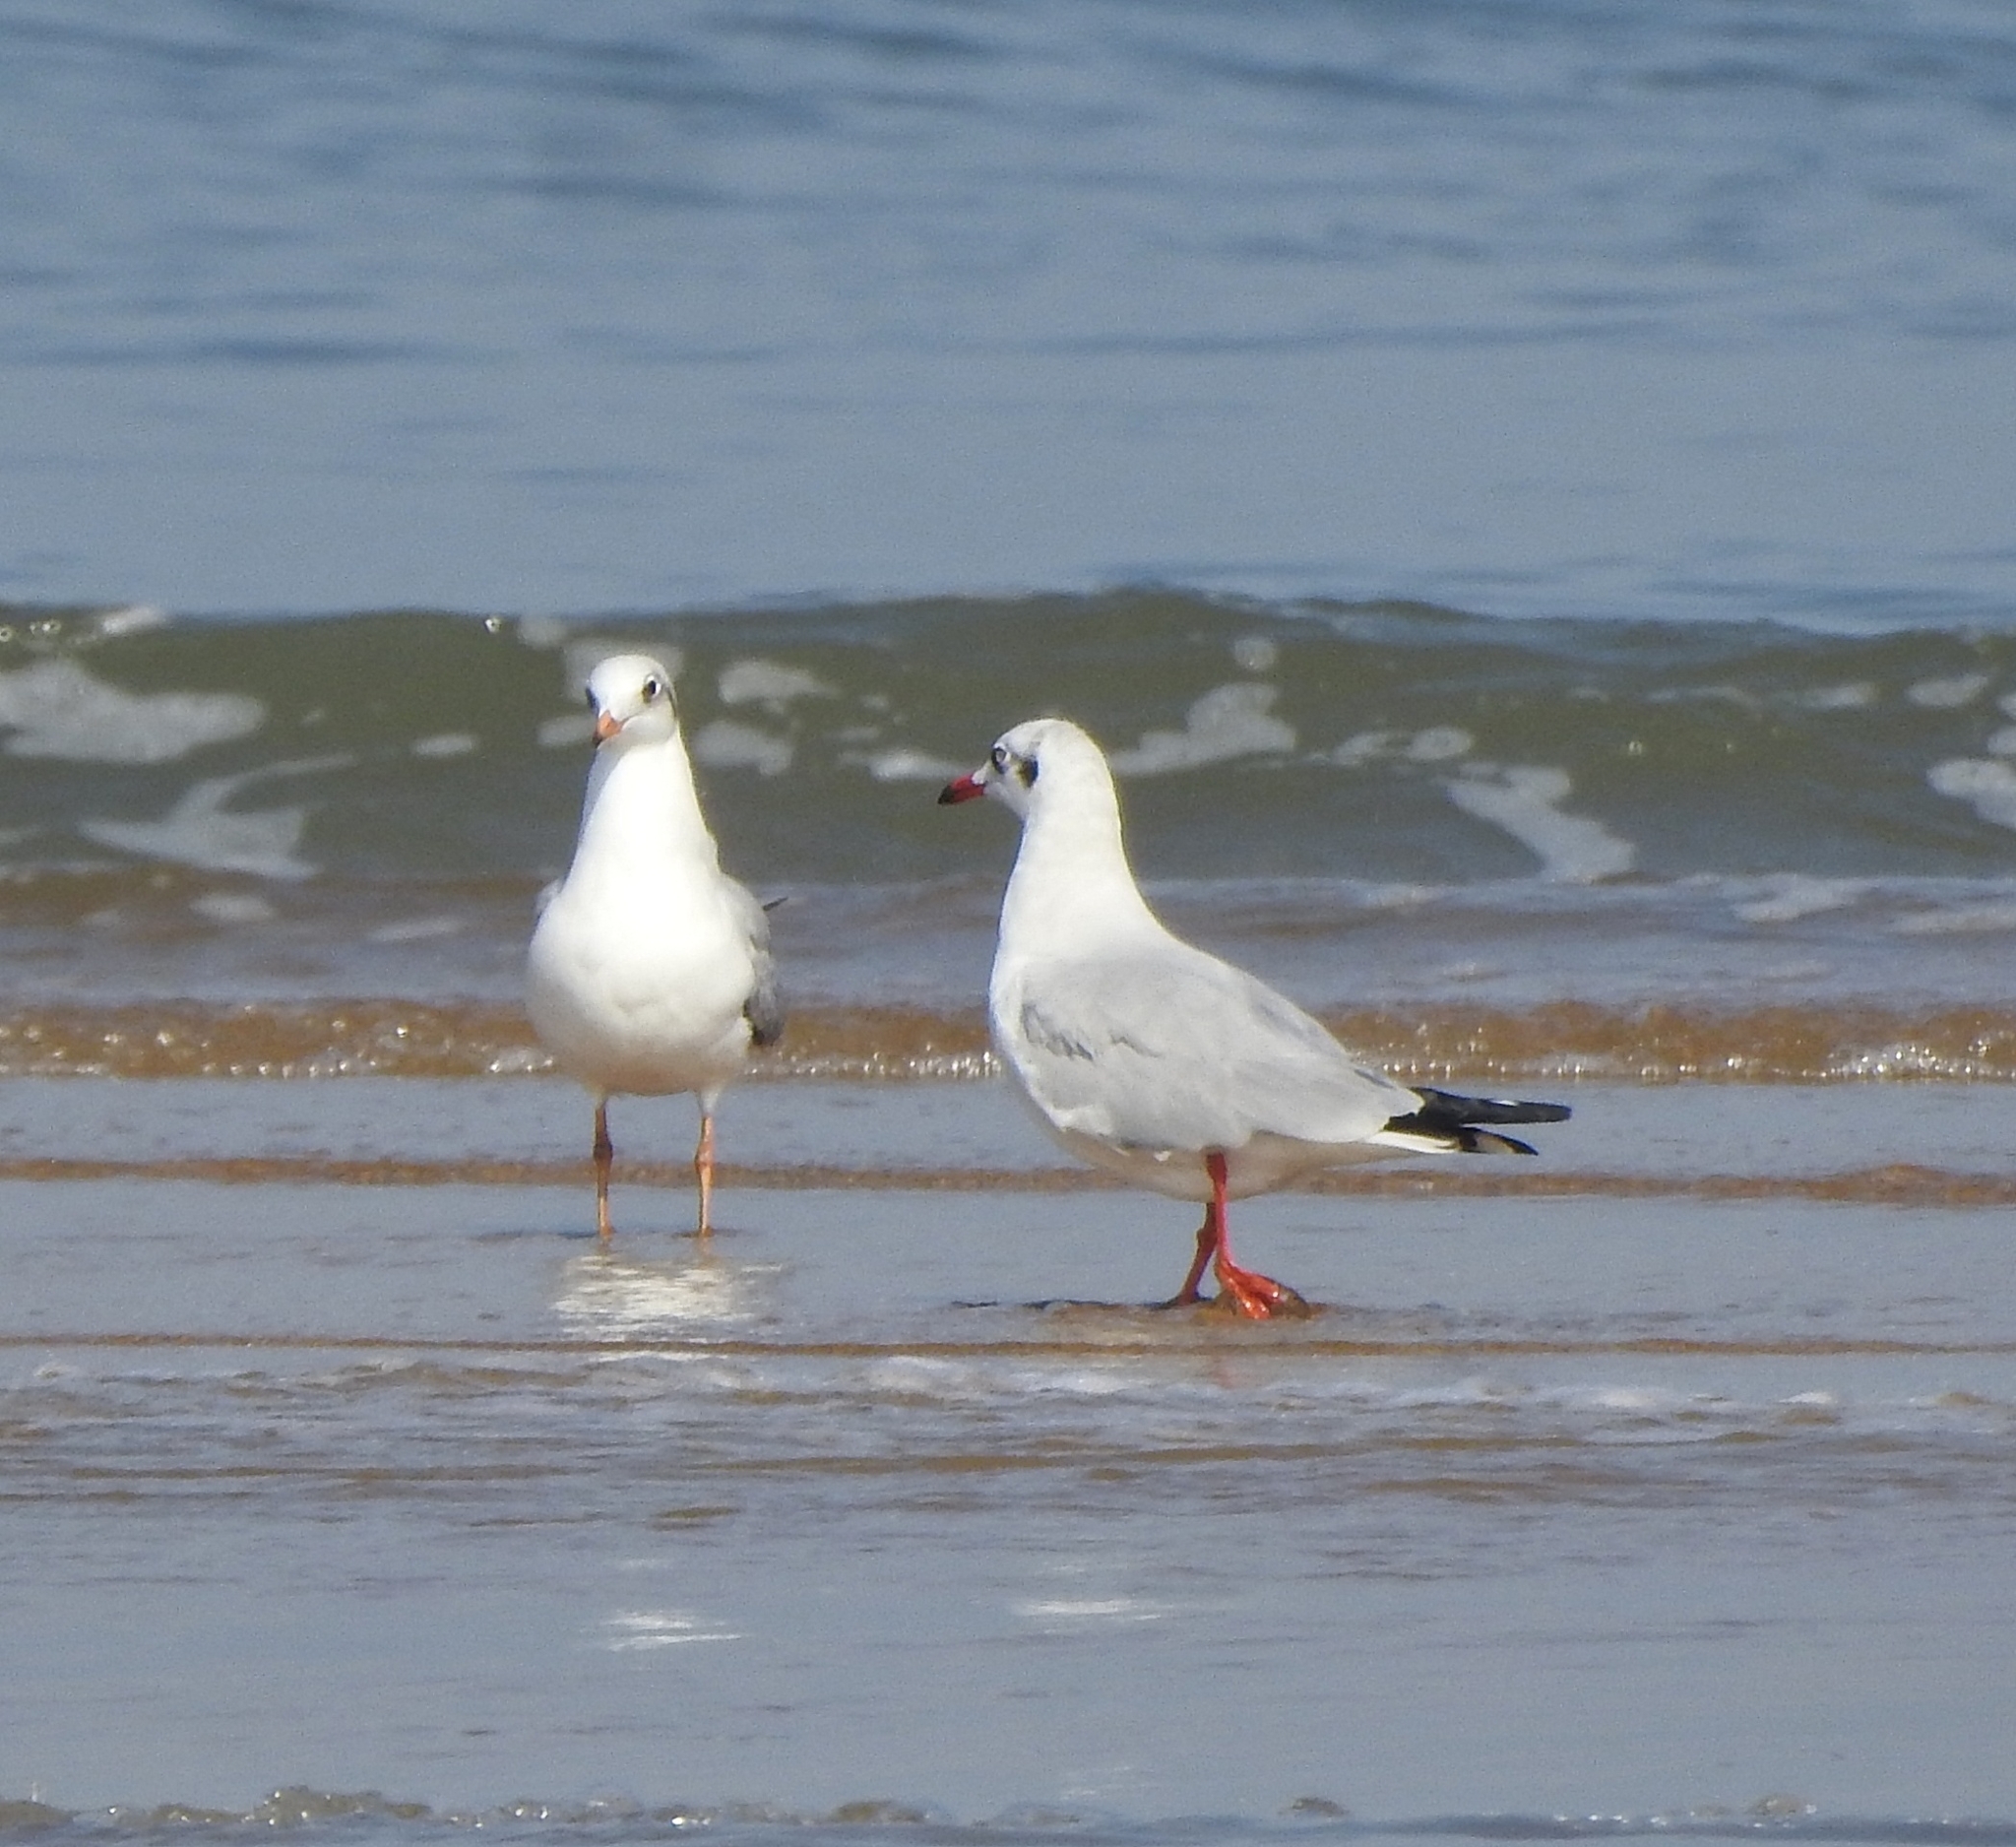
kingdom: Animalia
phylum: Chordata
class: Aves
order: Charadriiformes
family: Laridae
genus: Chroicocephalus
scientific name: Chroicocephalus brunnicephalus
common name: Brown-headed gull
